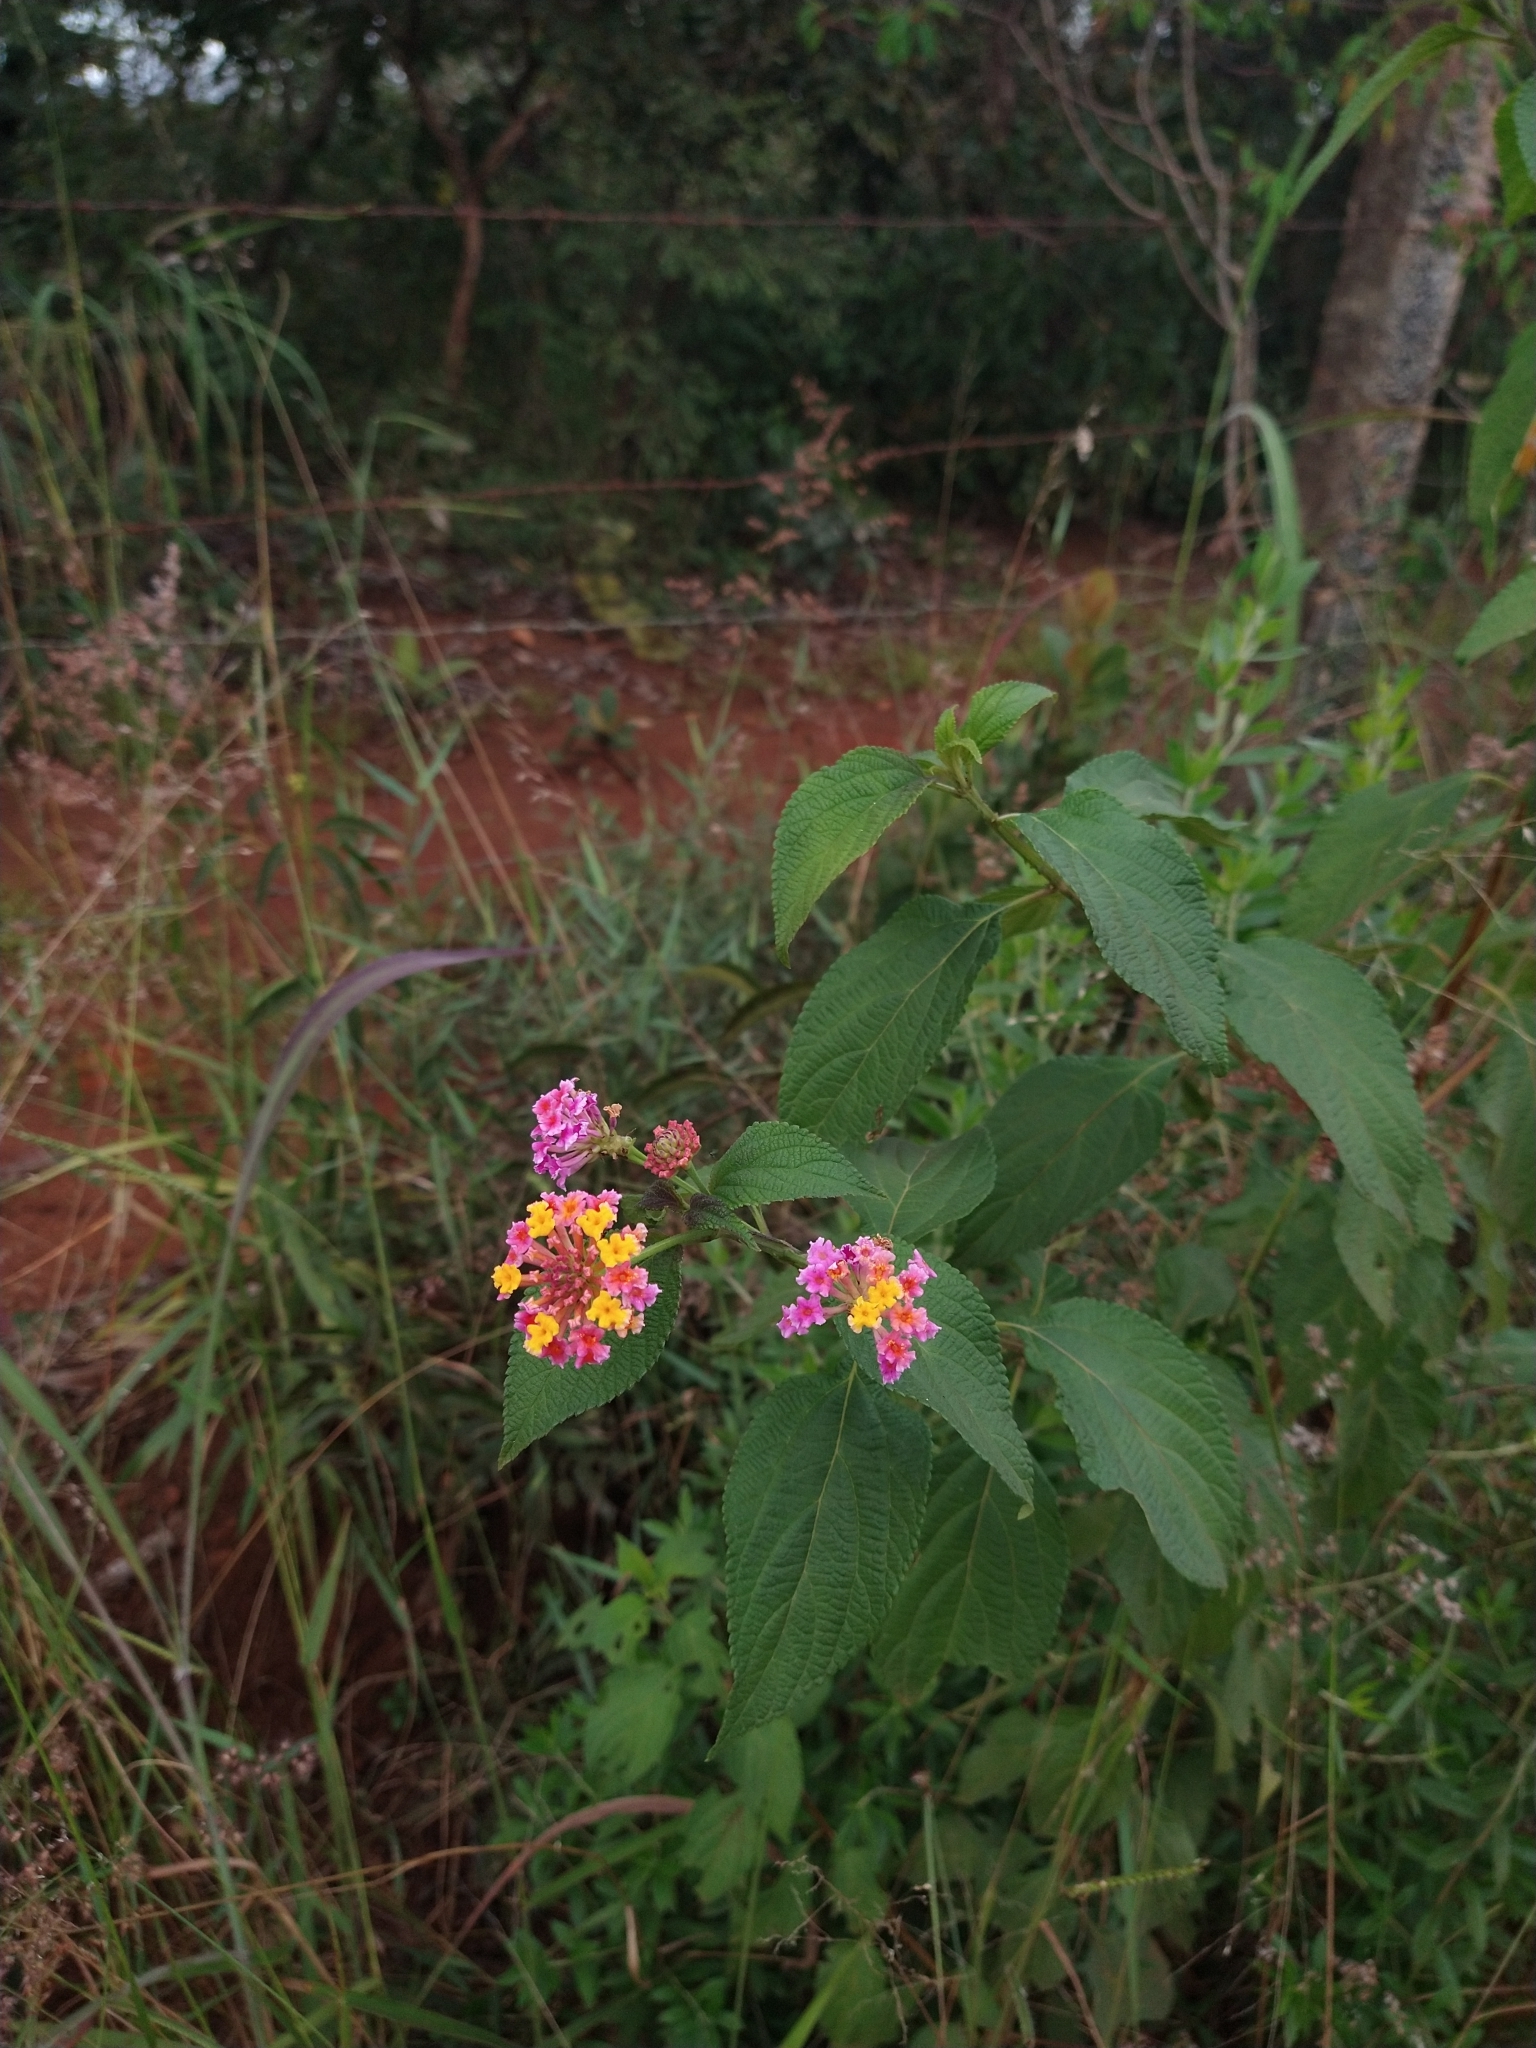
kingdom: Plantae
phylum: Tracheophyta
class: Magnoliopsida
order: Lamiales
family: Verbenaceae
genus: Lantana
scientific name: Lantana camara
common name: Lantana
